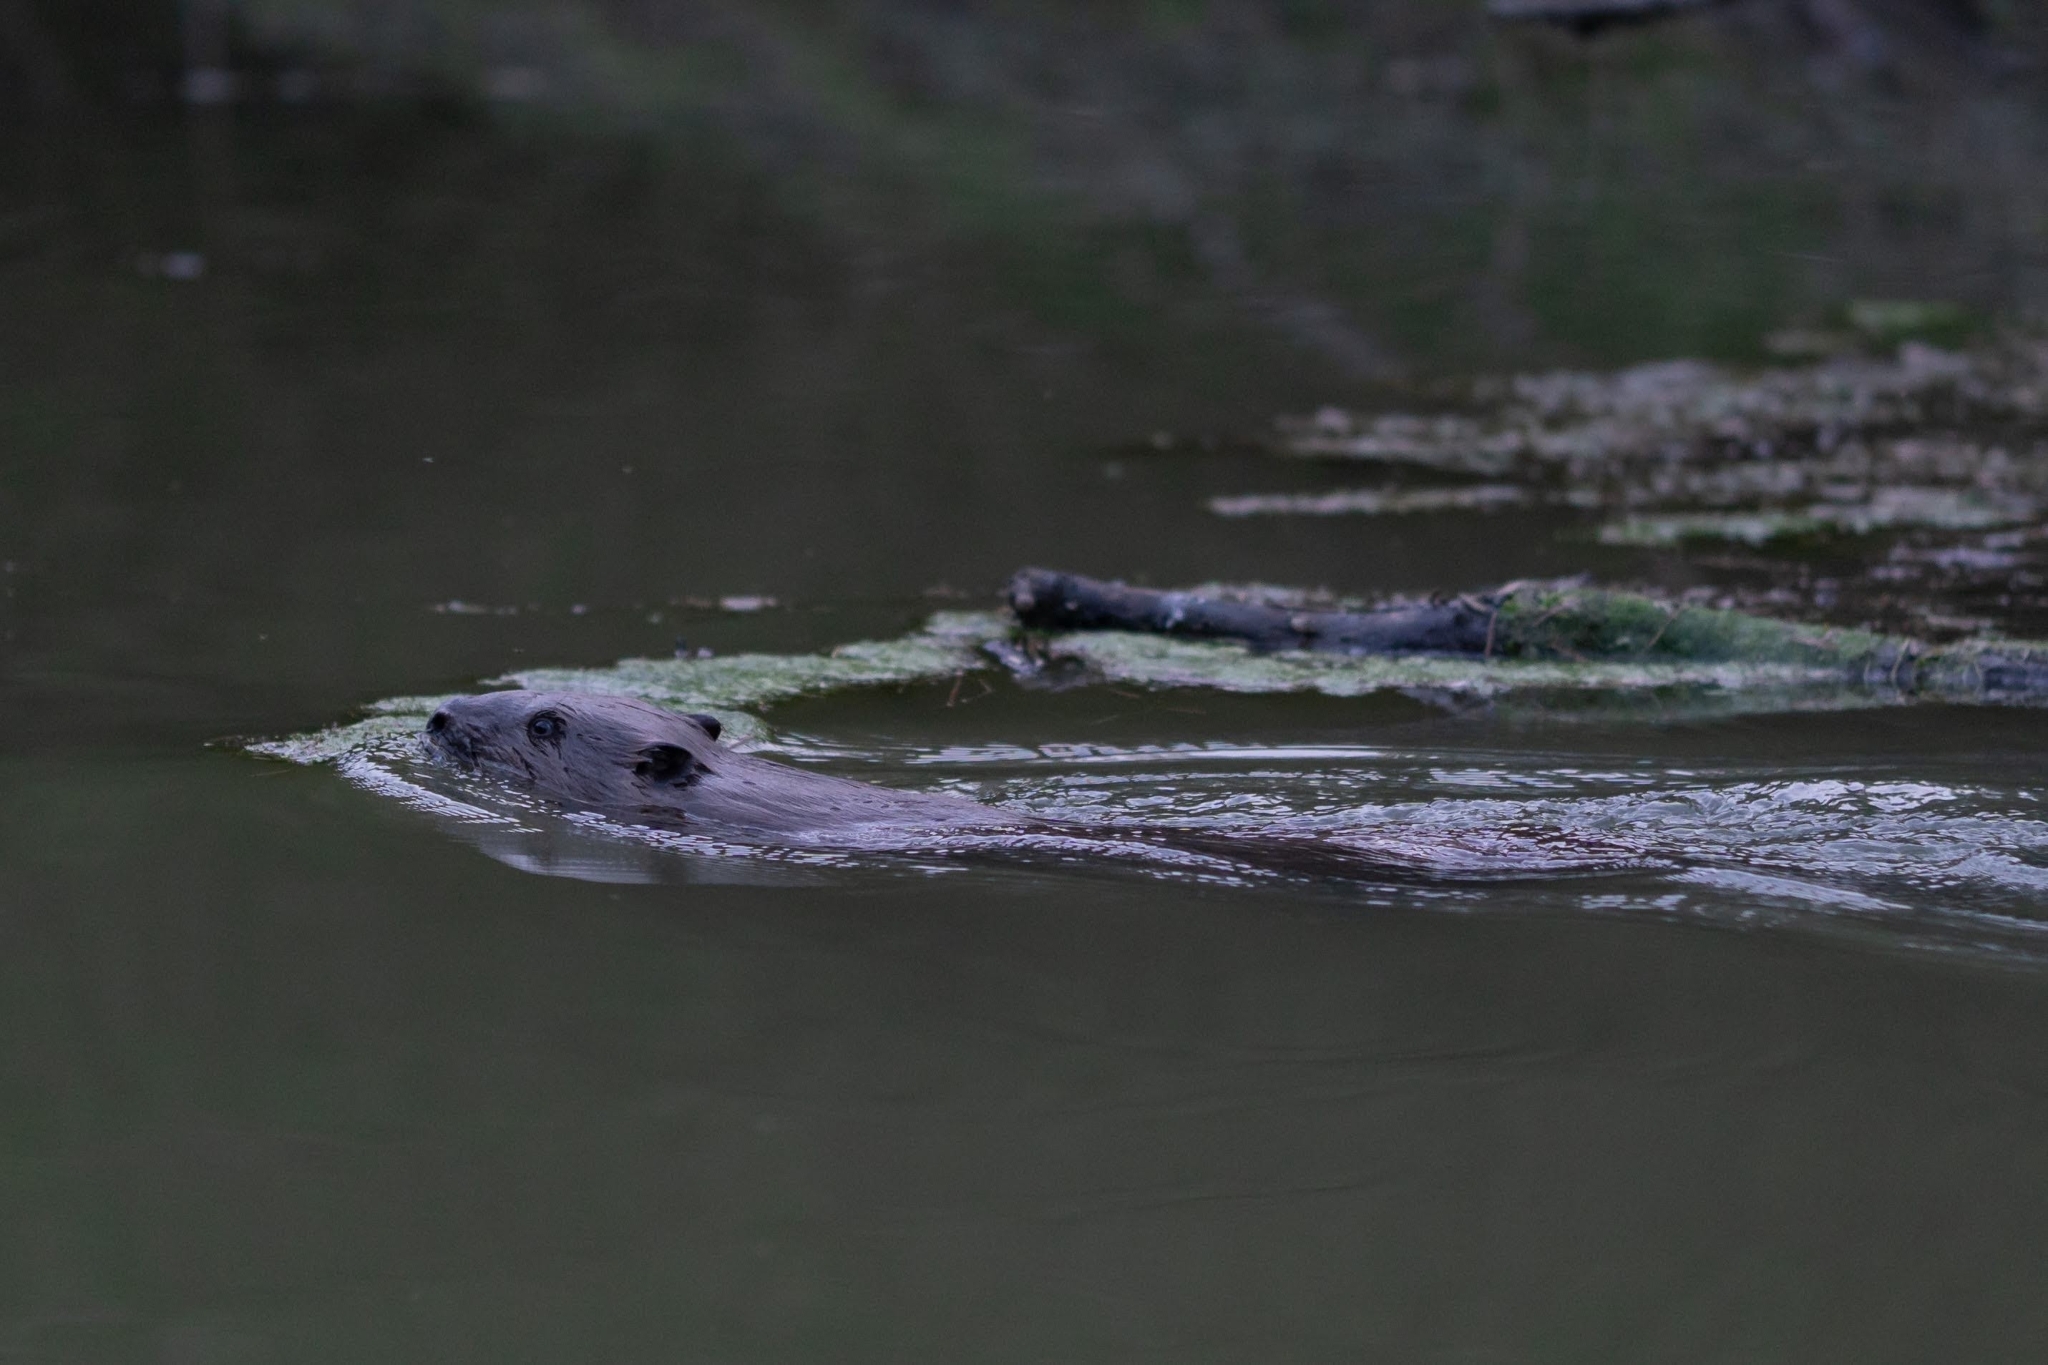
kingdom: Animalia
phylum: Chordata
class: Mammalia
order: Rodentia
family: Castoridae
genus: Castor
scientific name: Castor fiber
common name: Eurasian beaver
